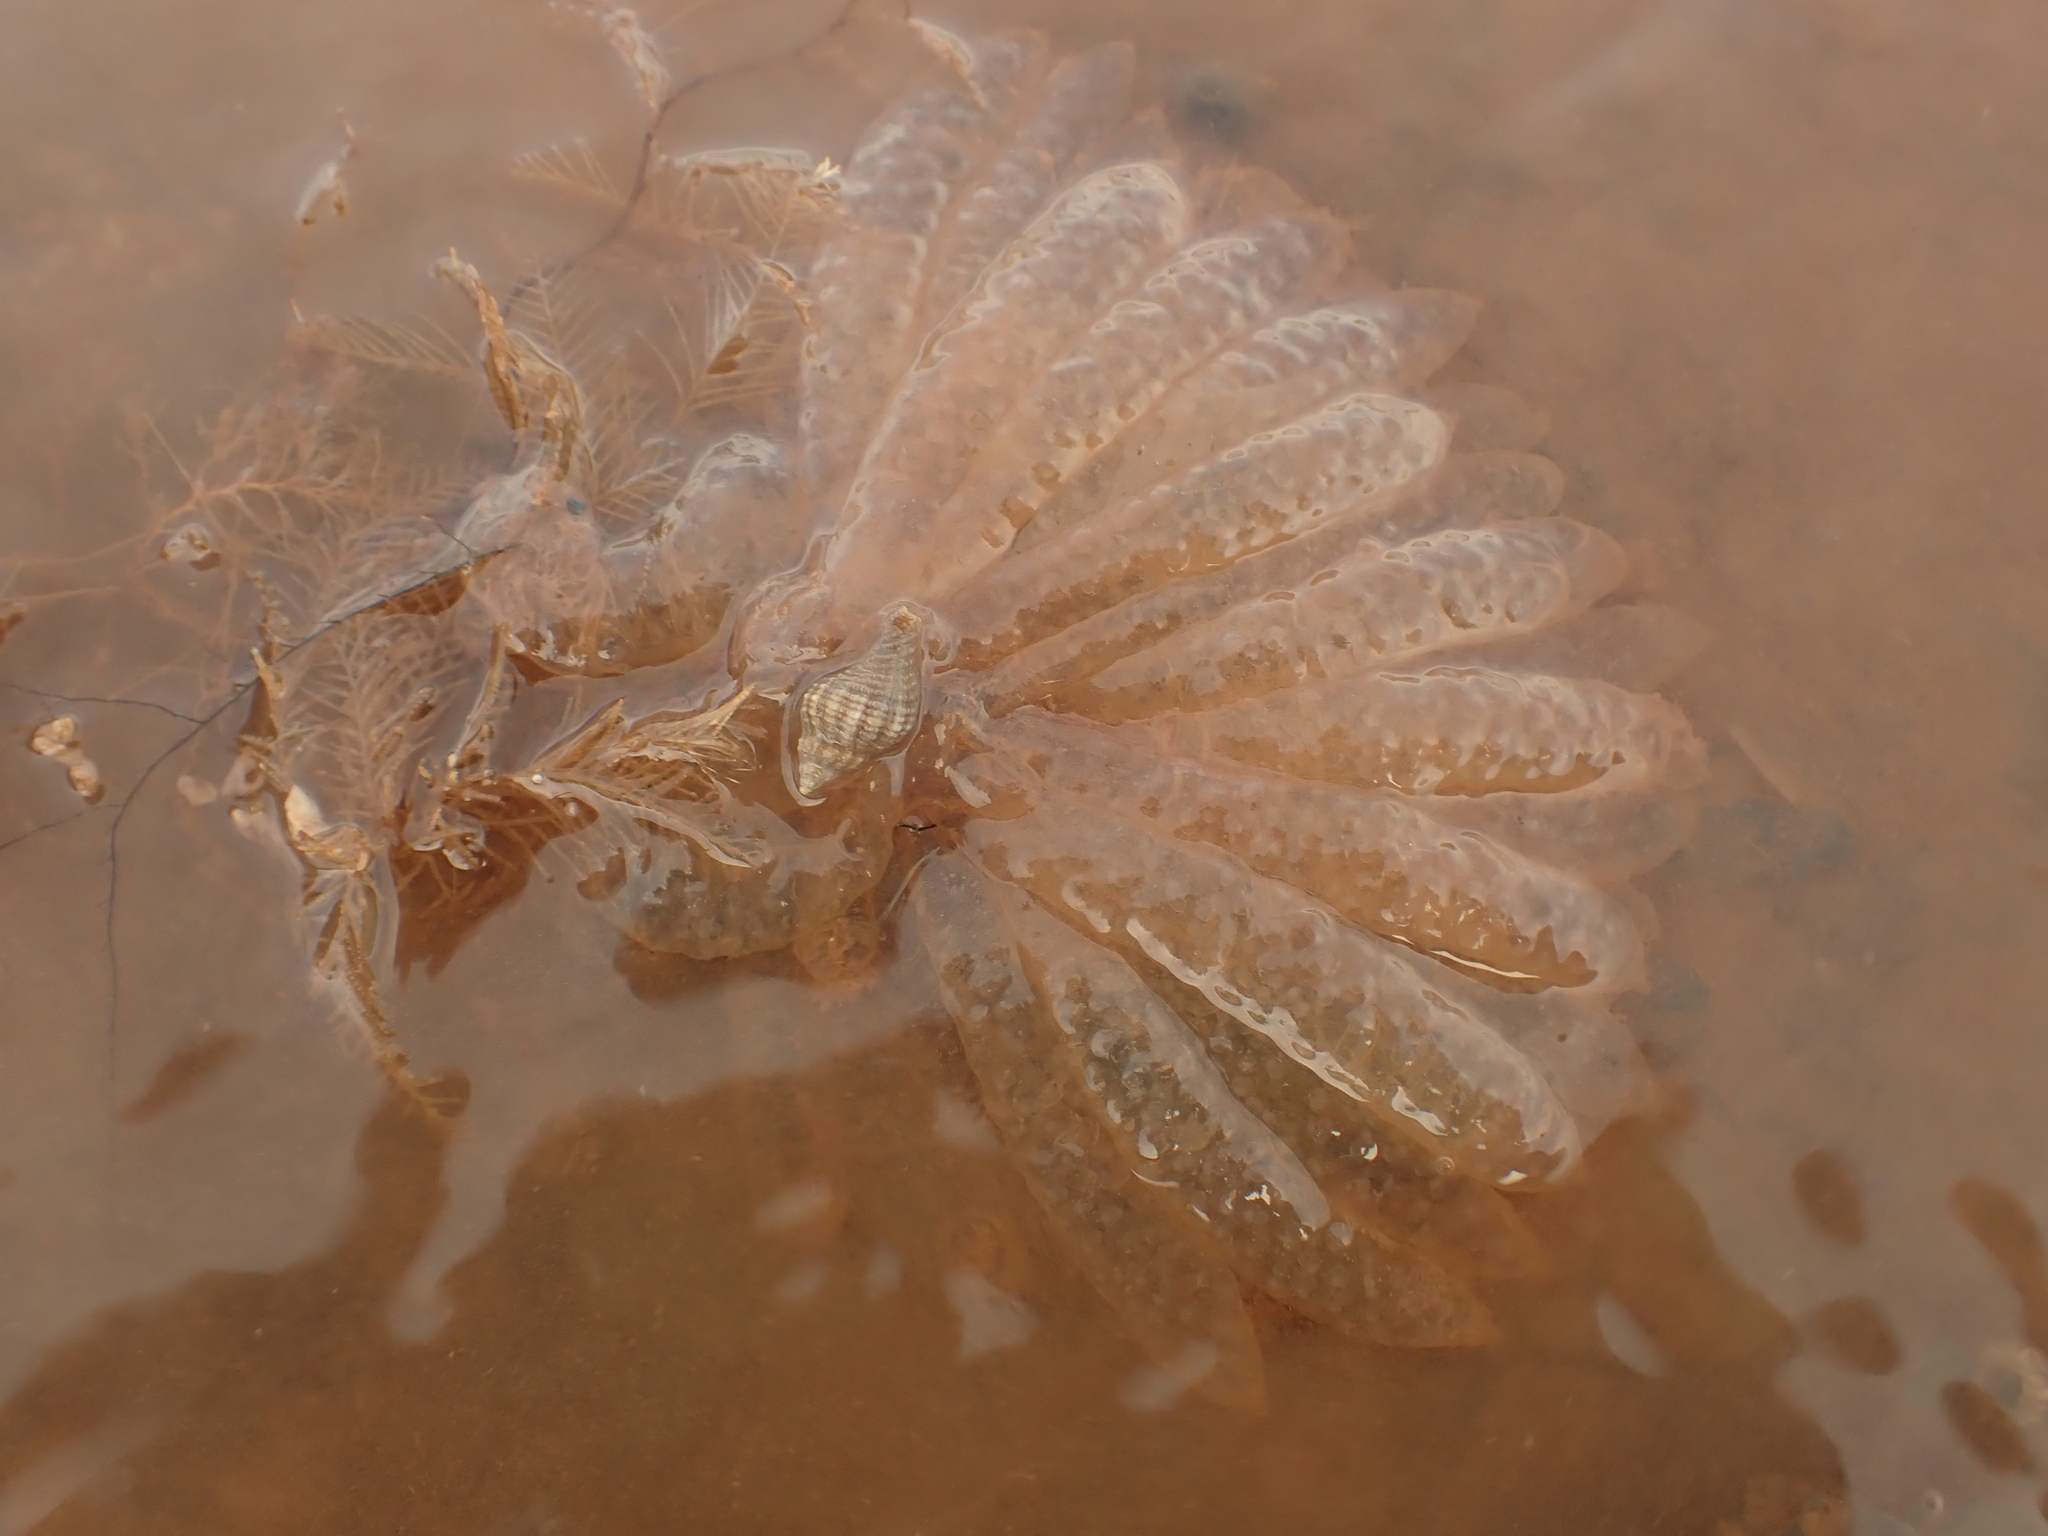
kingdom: Animalia
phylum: Mollusca
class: Gastropoda
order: Neogastropoda
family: Muricidae
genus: Urosalpinx
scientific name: Urosalpinx cinerea
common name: American sting winkle
